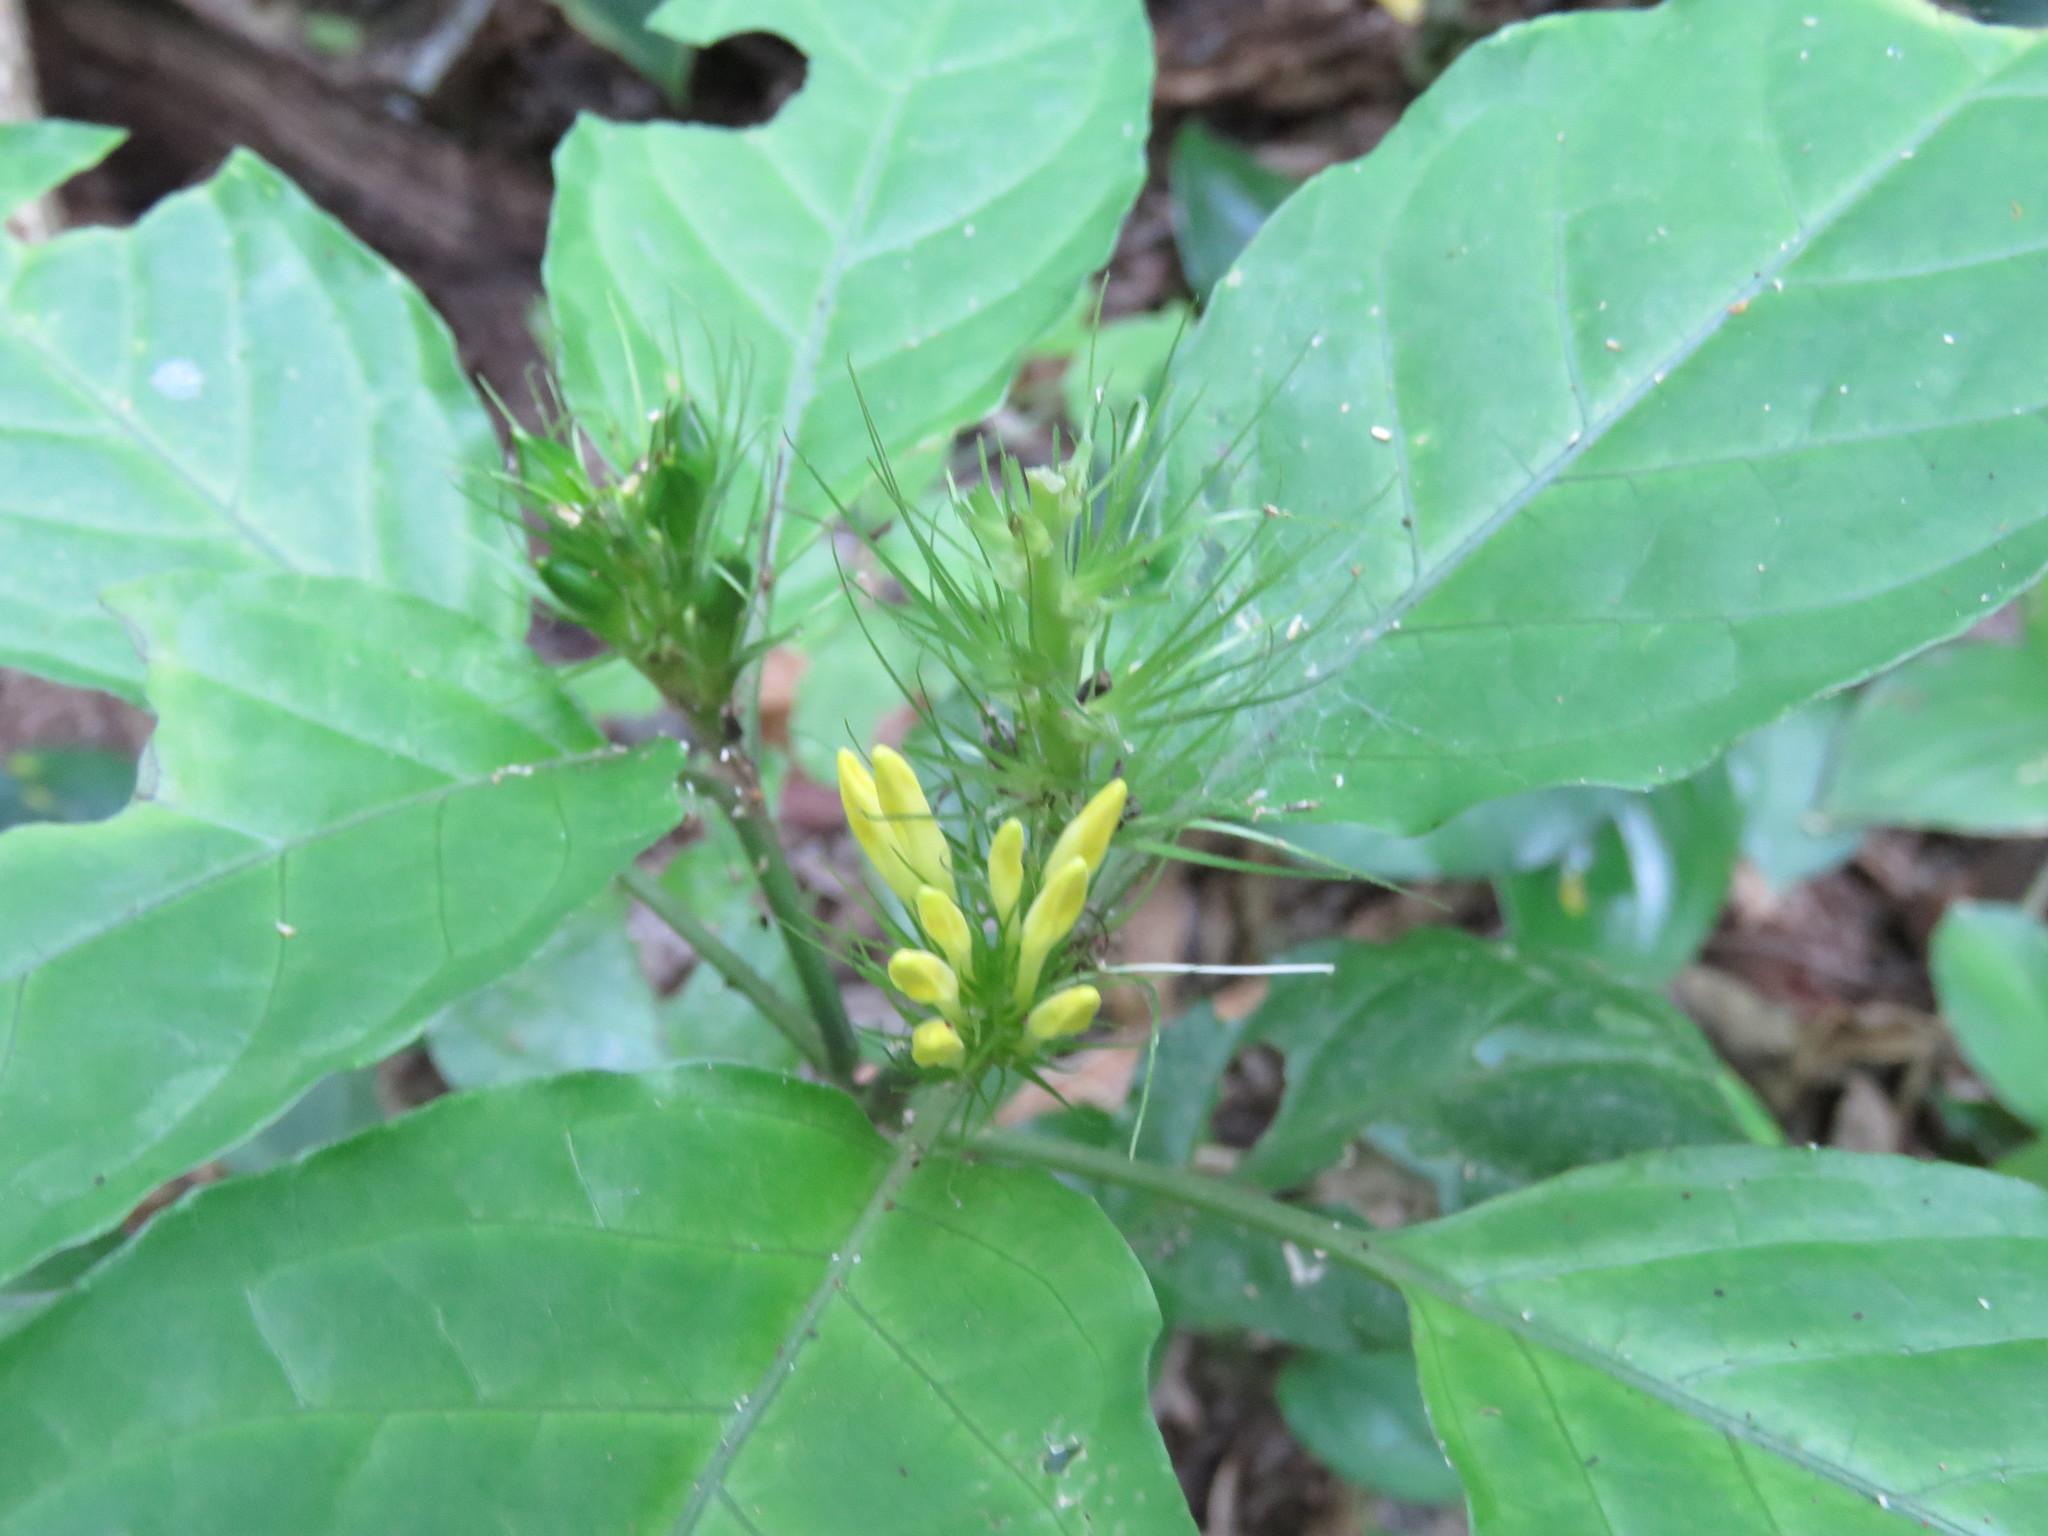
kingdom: Plantae
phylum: Tracheophyta
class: Magnoliopsida
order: Lamiales
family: Acanthaceae
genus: Schaueria
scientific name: Schaueria parviflora
